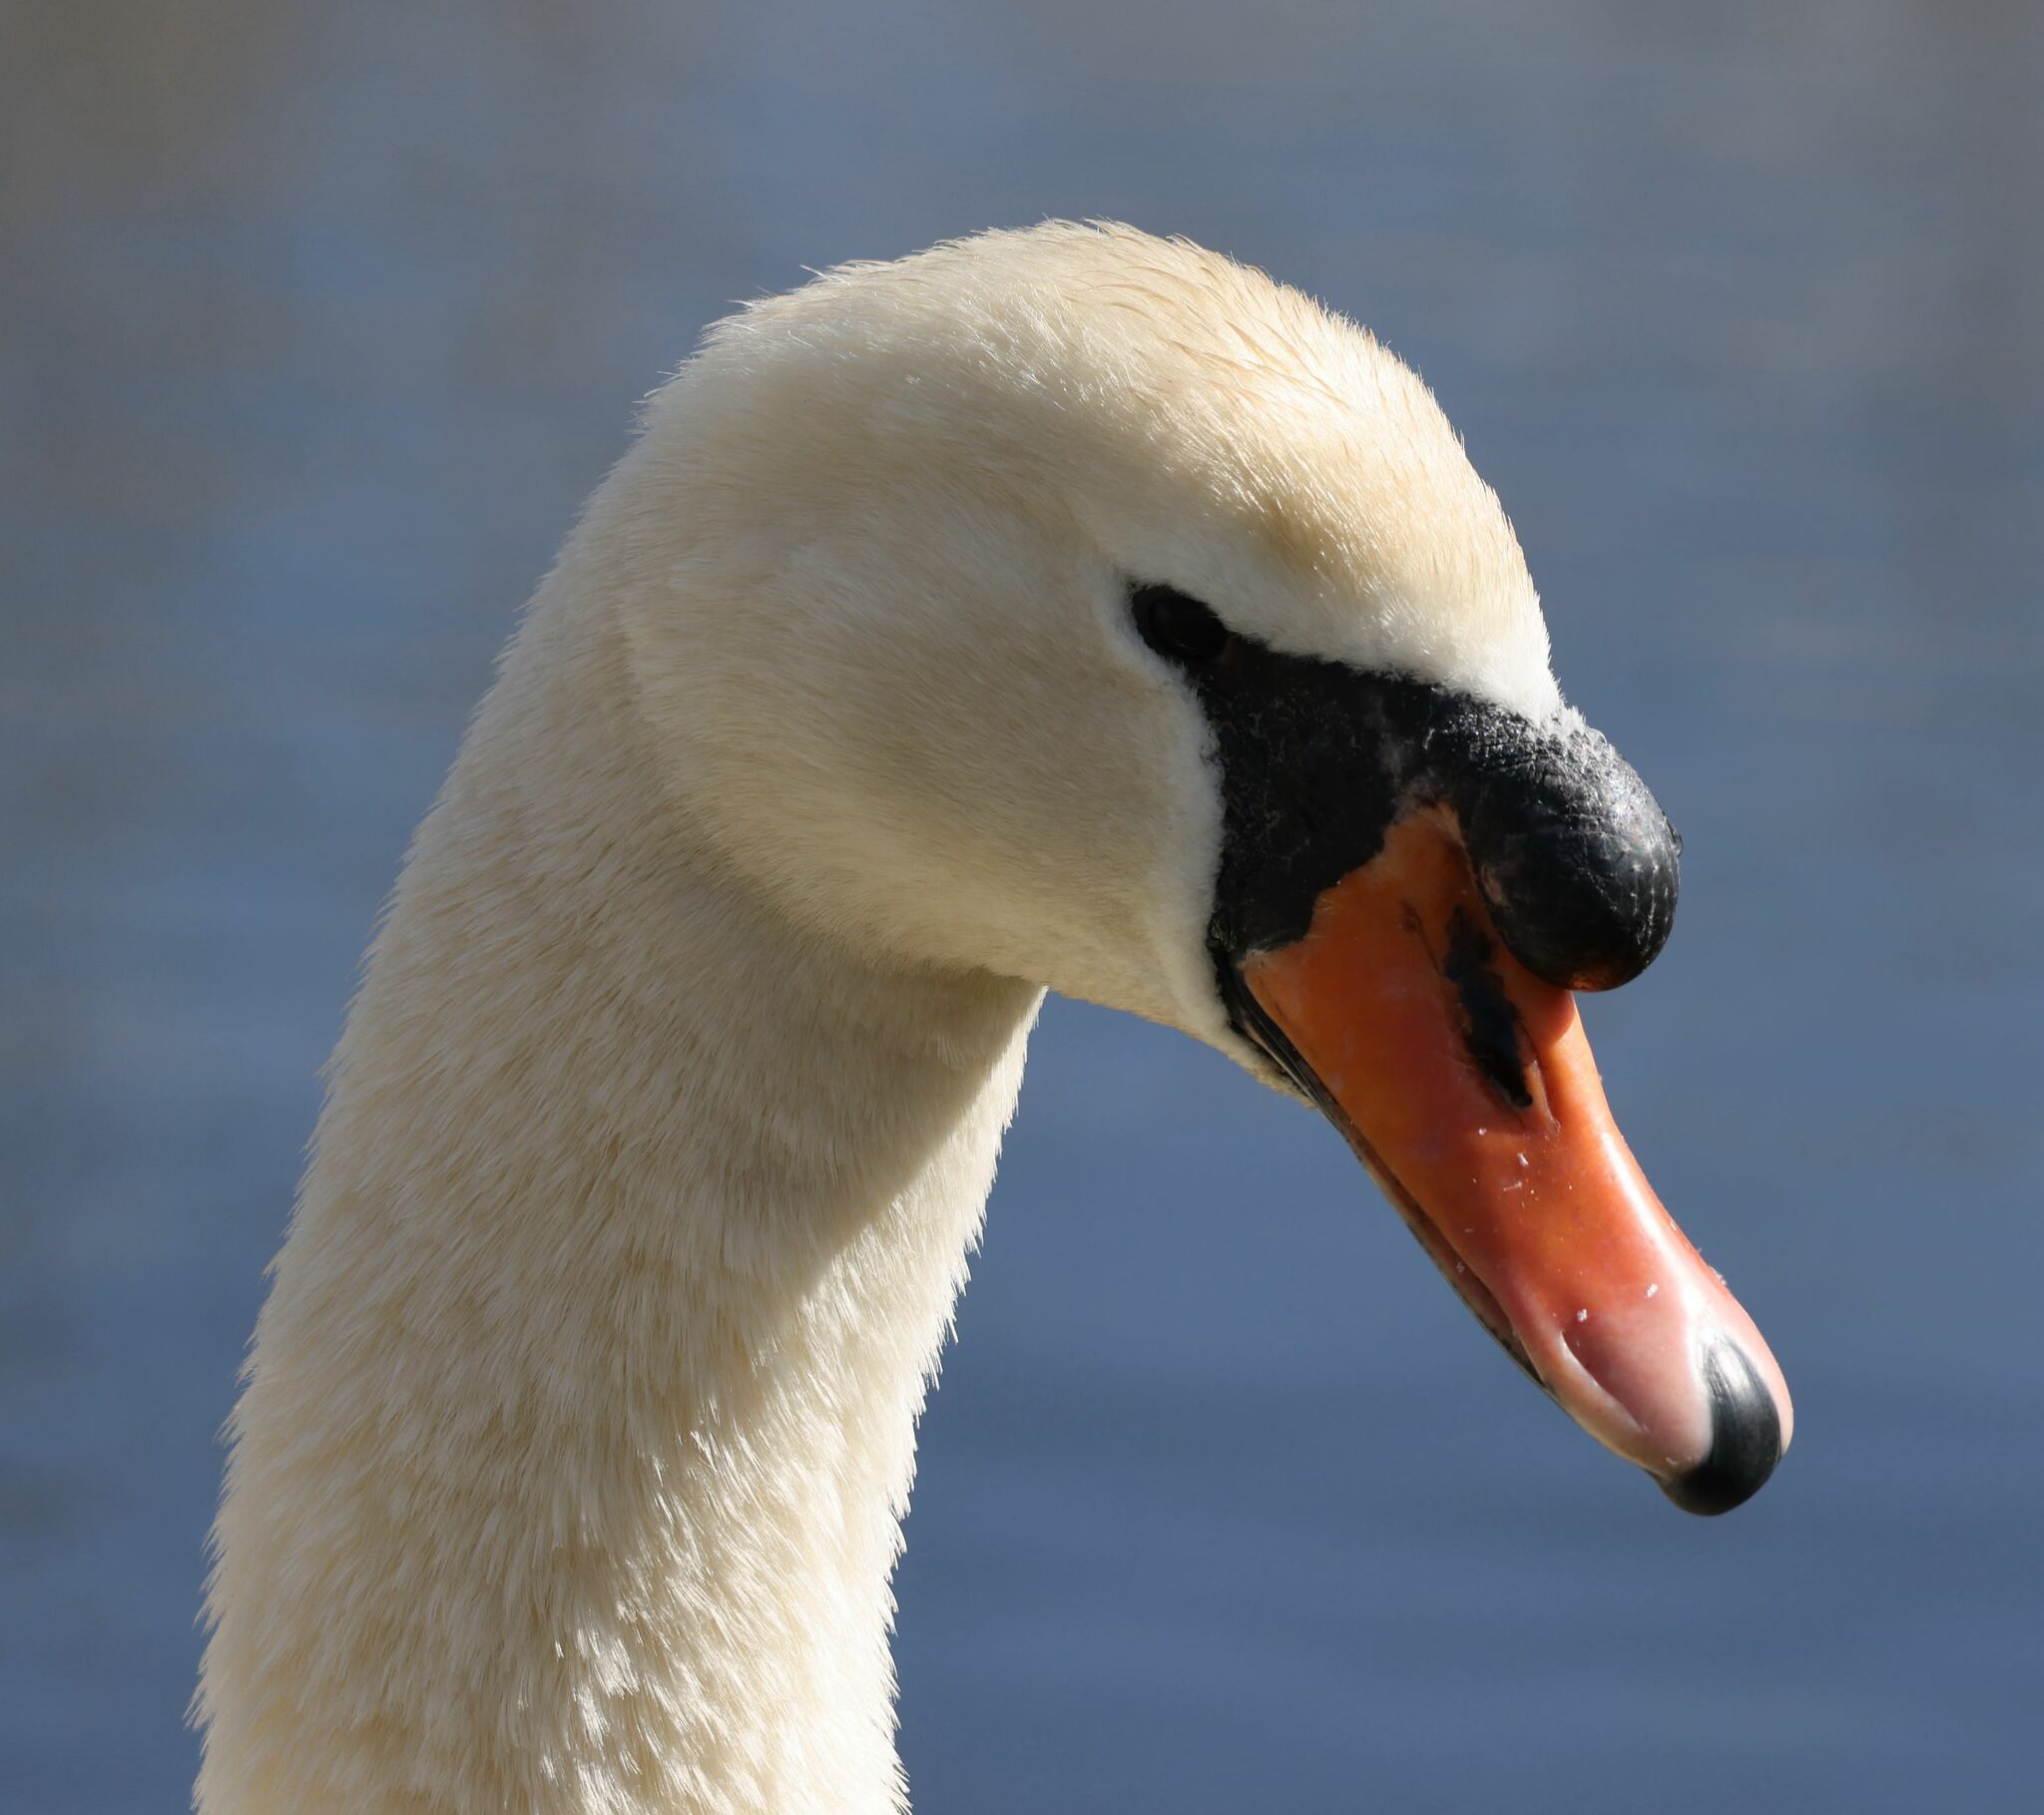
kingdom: Animalia
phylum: Chordata
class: Aves
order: Anseriformes
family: Anatidae
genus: Cygnus
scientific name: Cygnus olor
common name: Mute swan
